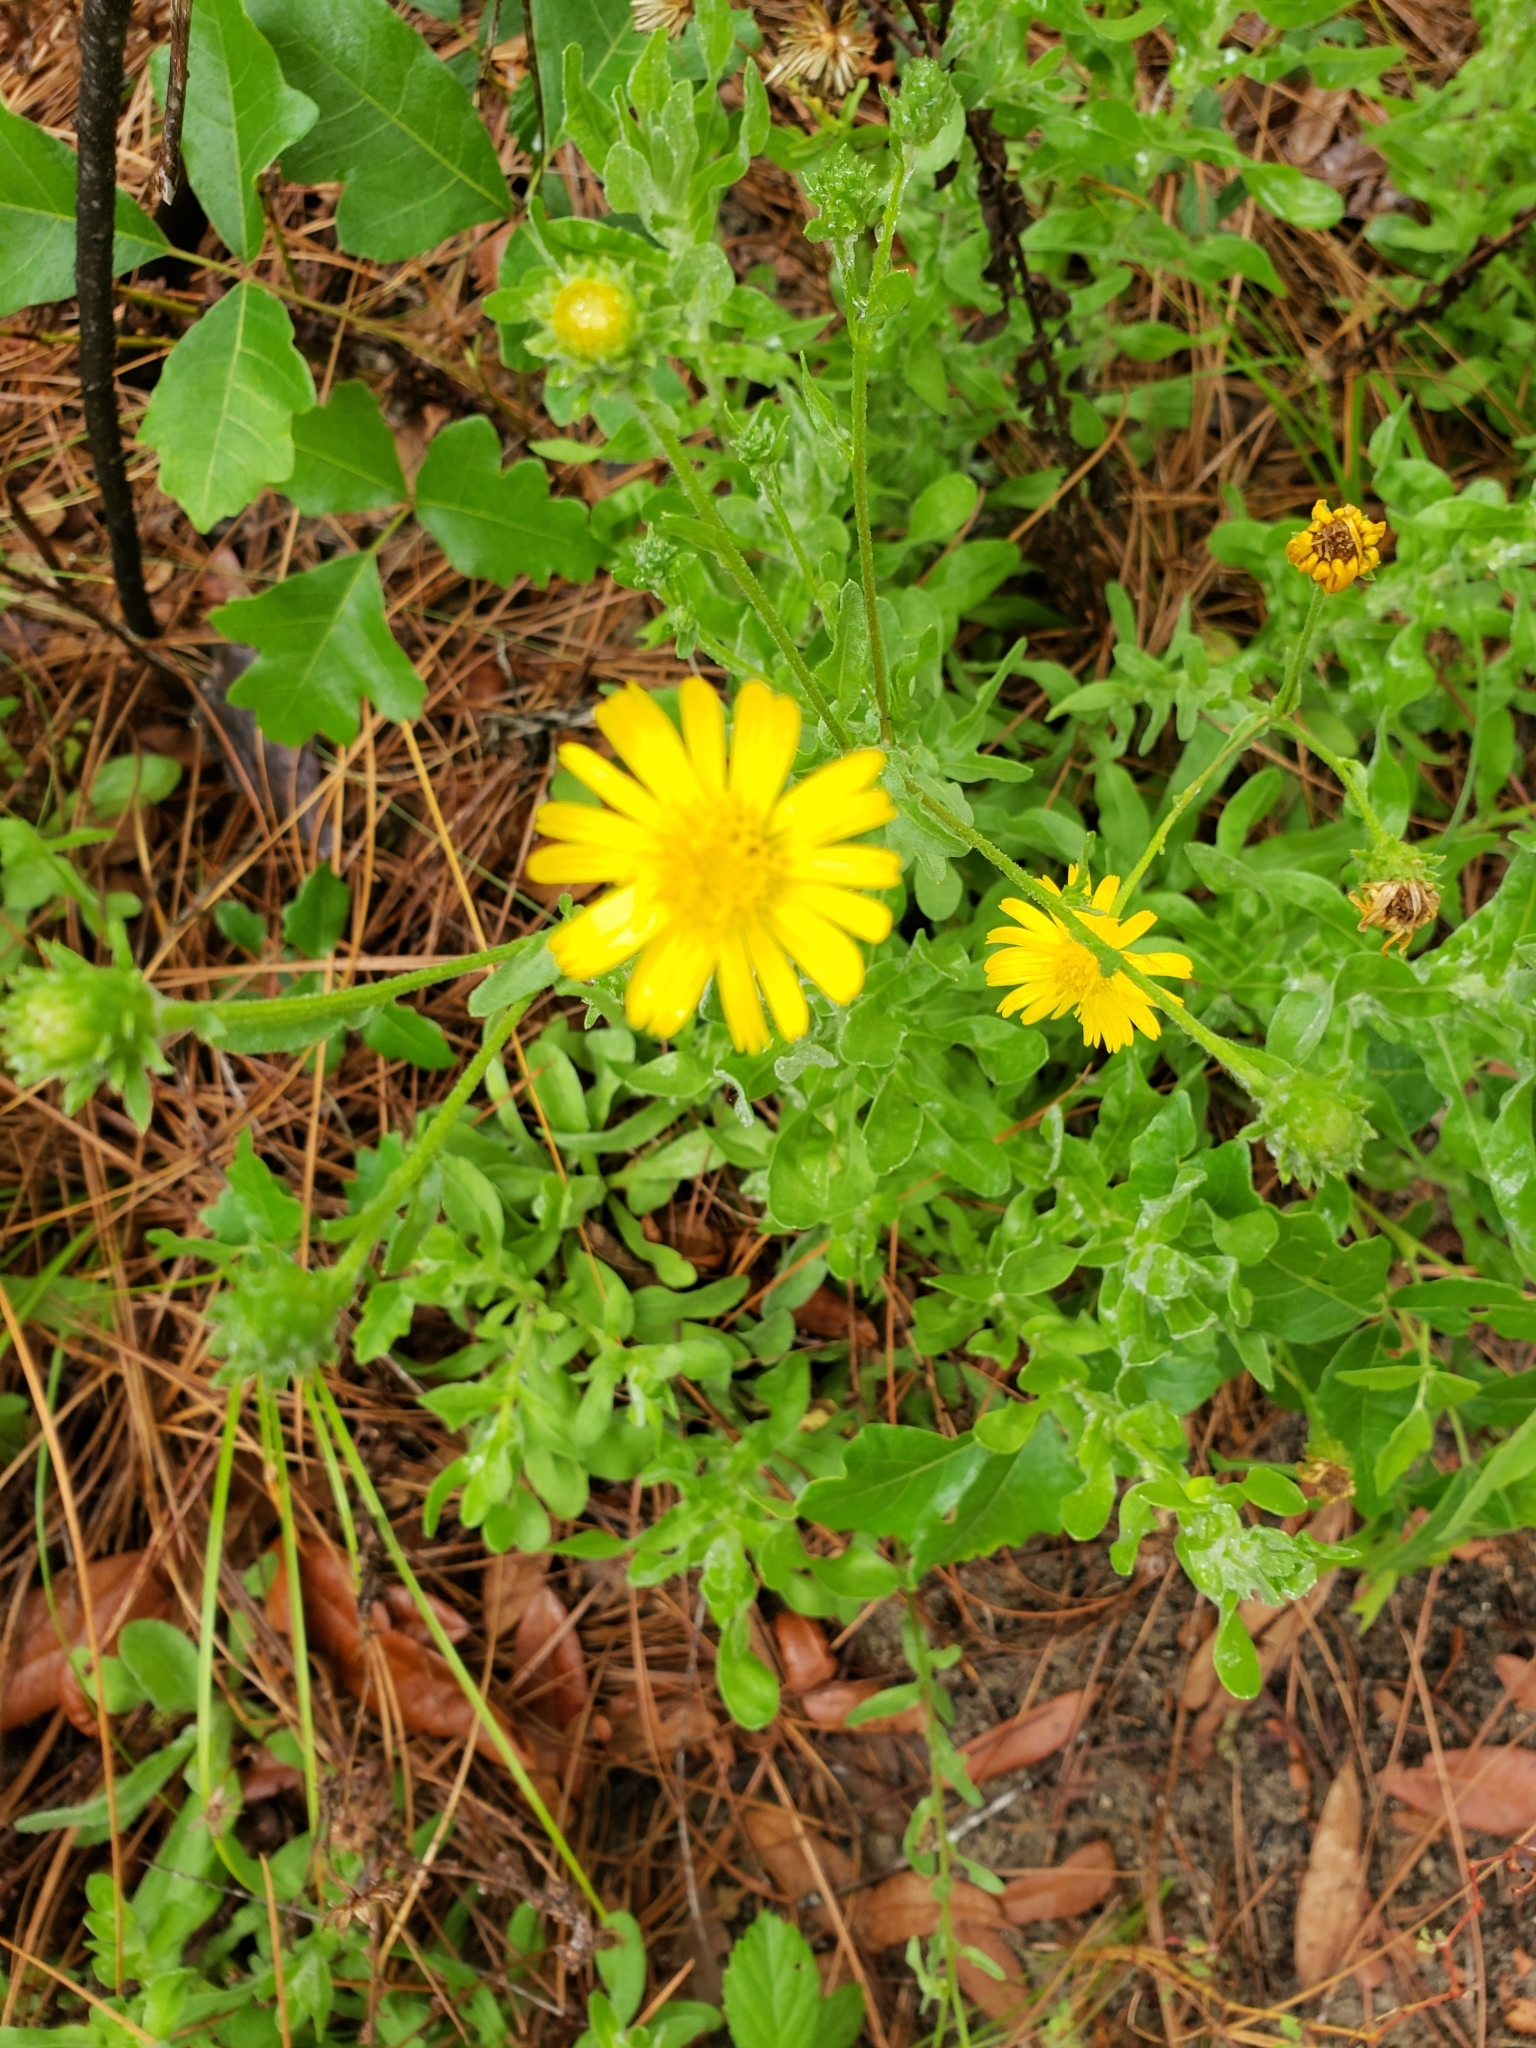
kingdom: Plantae
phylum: Tracheophyta
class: Magnoliopsida
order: Asterales
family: Asteraceae
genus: Heterotheca
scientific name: Heterotheca subaxillaris
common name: Camphorweed
